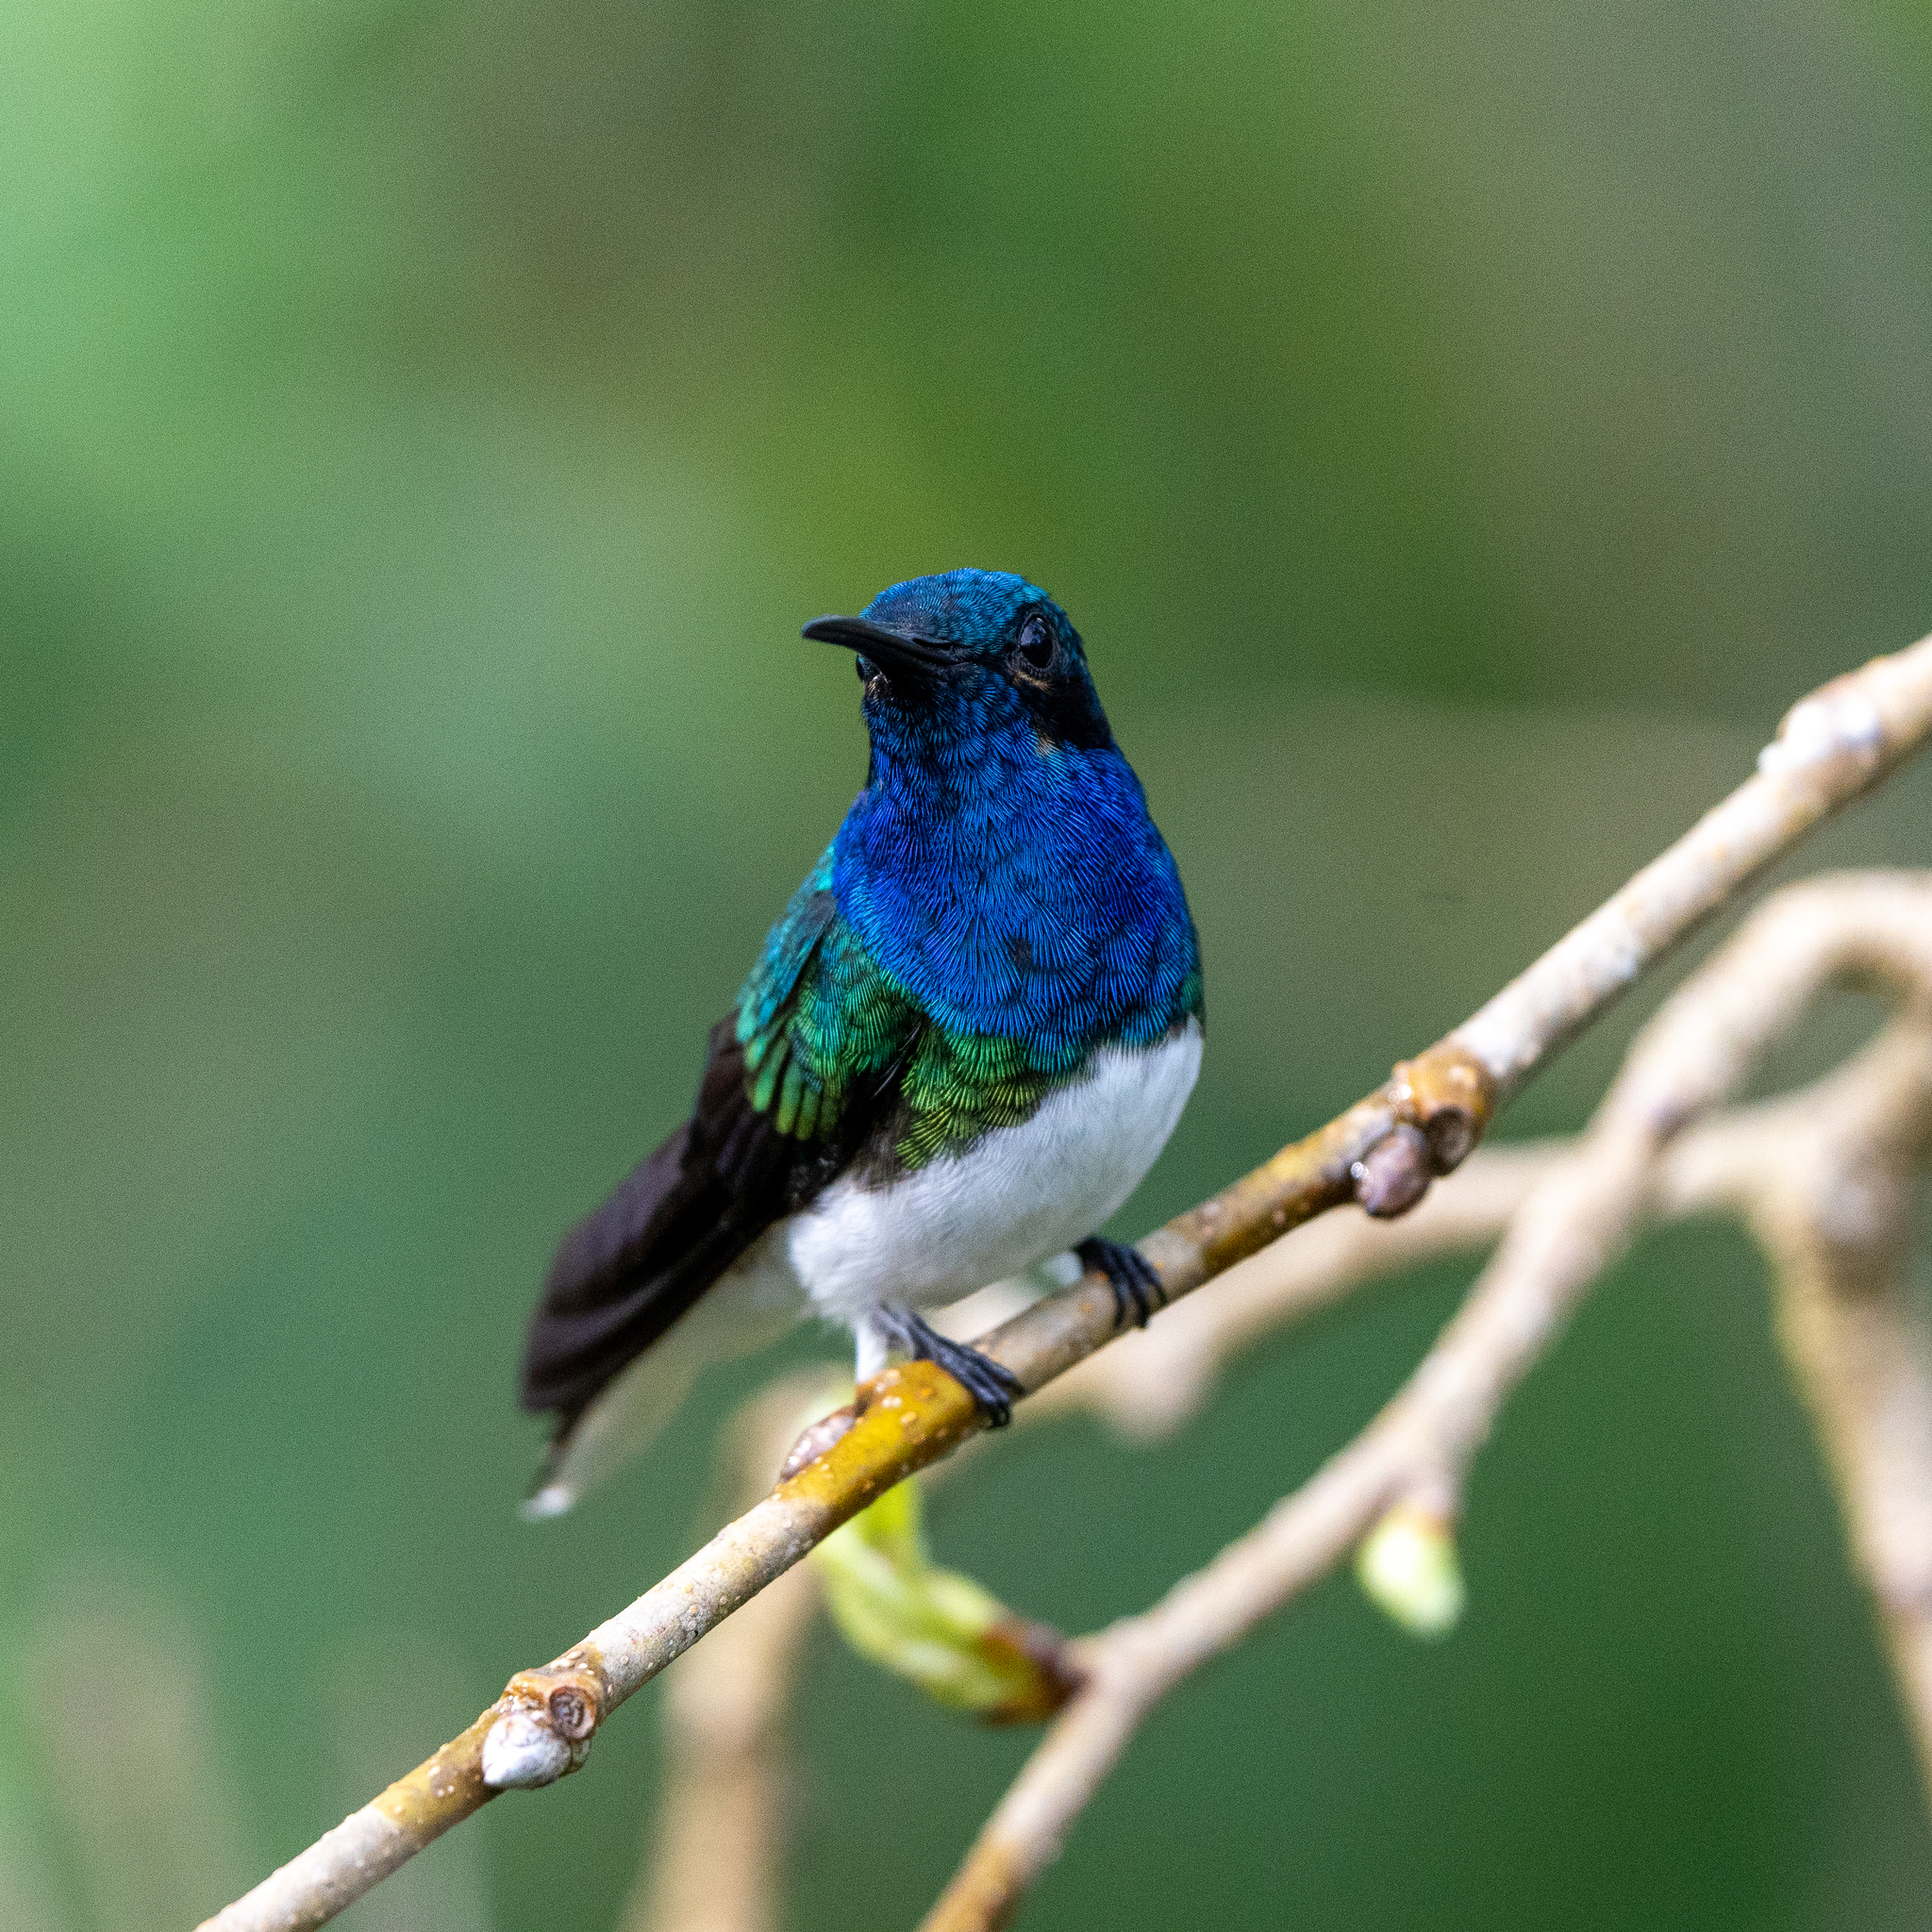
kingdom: Animalia
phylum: Chordata
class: Aves
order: Apodiformes
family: Trochilidae
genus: Florisuga
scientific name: Florisuga mellivora
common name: White-necked jacobin
